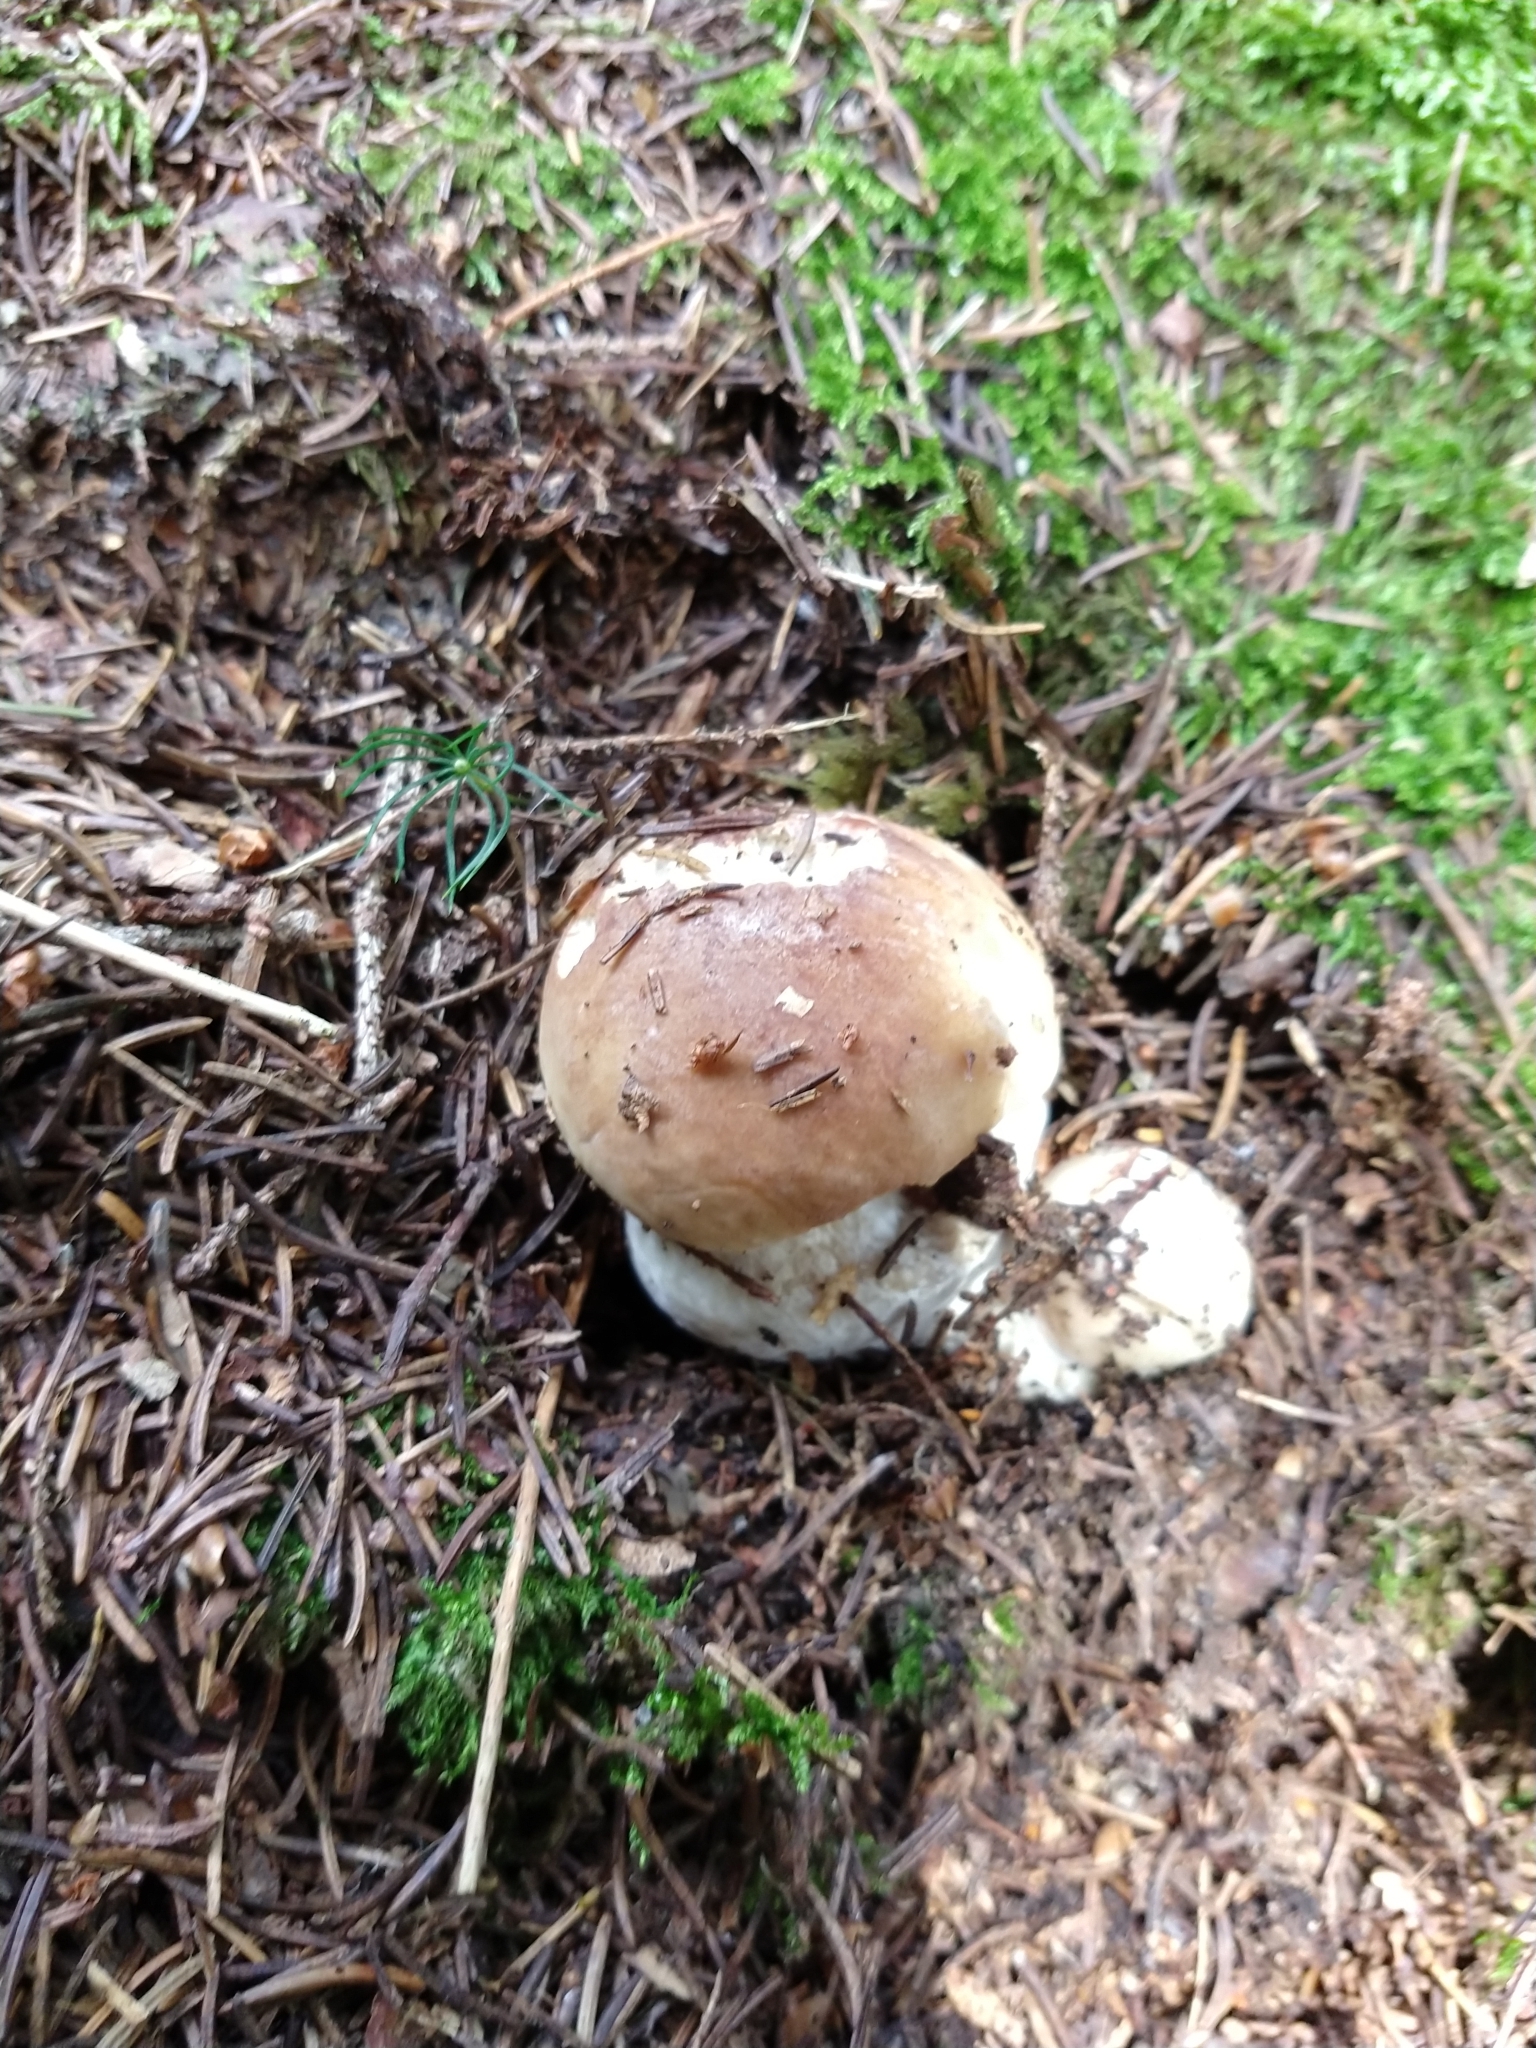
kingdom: Fungi
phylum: Basidiomycota
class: Agaricomycetes
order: Boletales
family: Boletaceae
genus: Boletus
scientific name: Boletus edulis
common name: Cep
